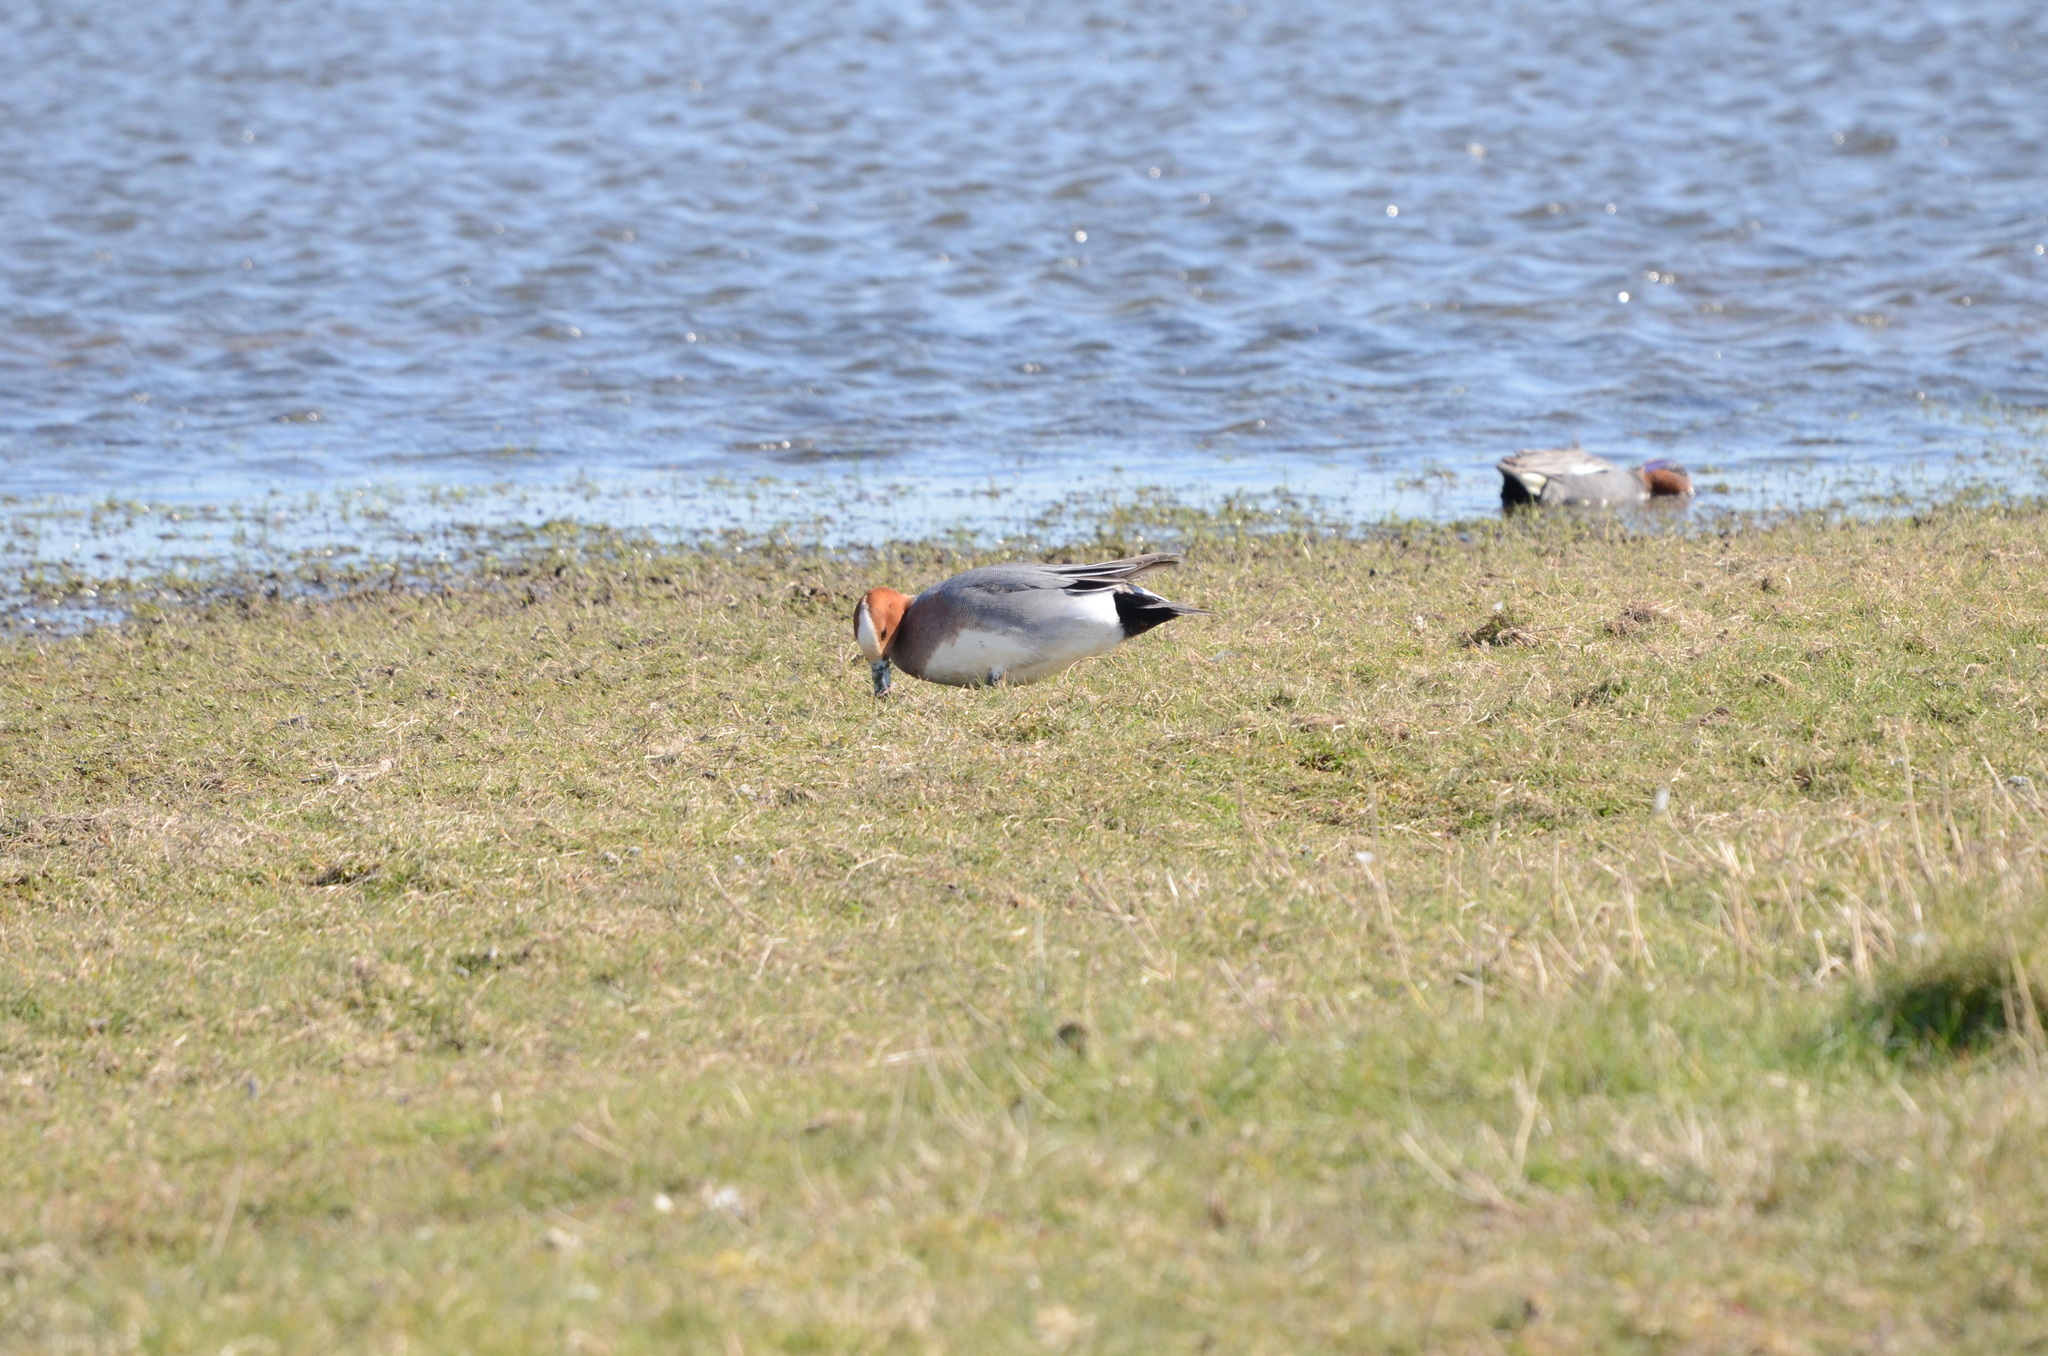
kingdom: Animalia
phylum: Chordata
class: Aves
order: Anseriformes
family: Anatidae
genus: Mareca
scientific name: Mareca penelope
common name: Eurasian wigeon
